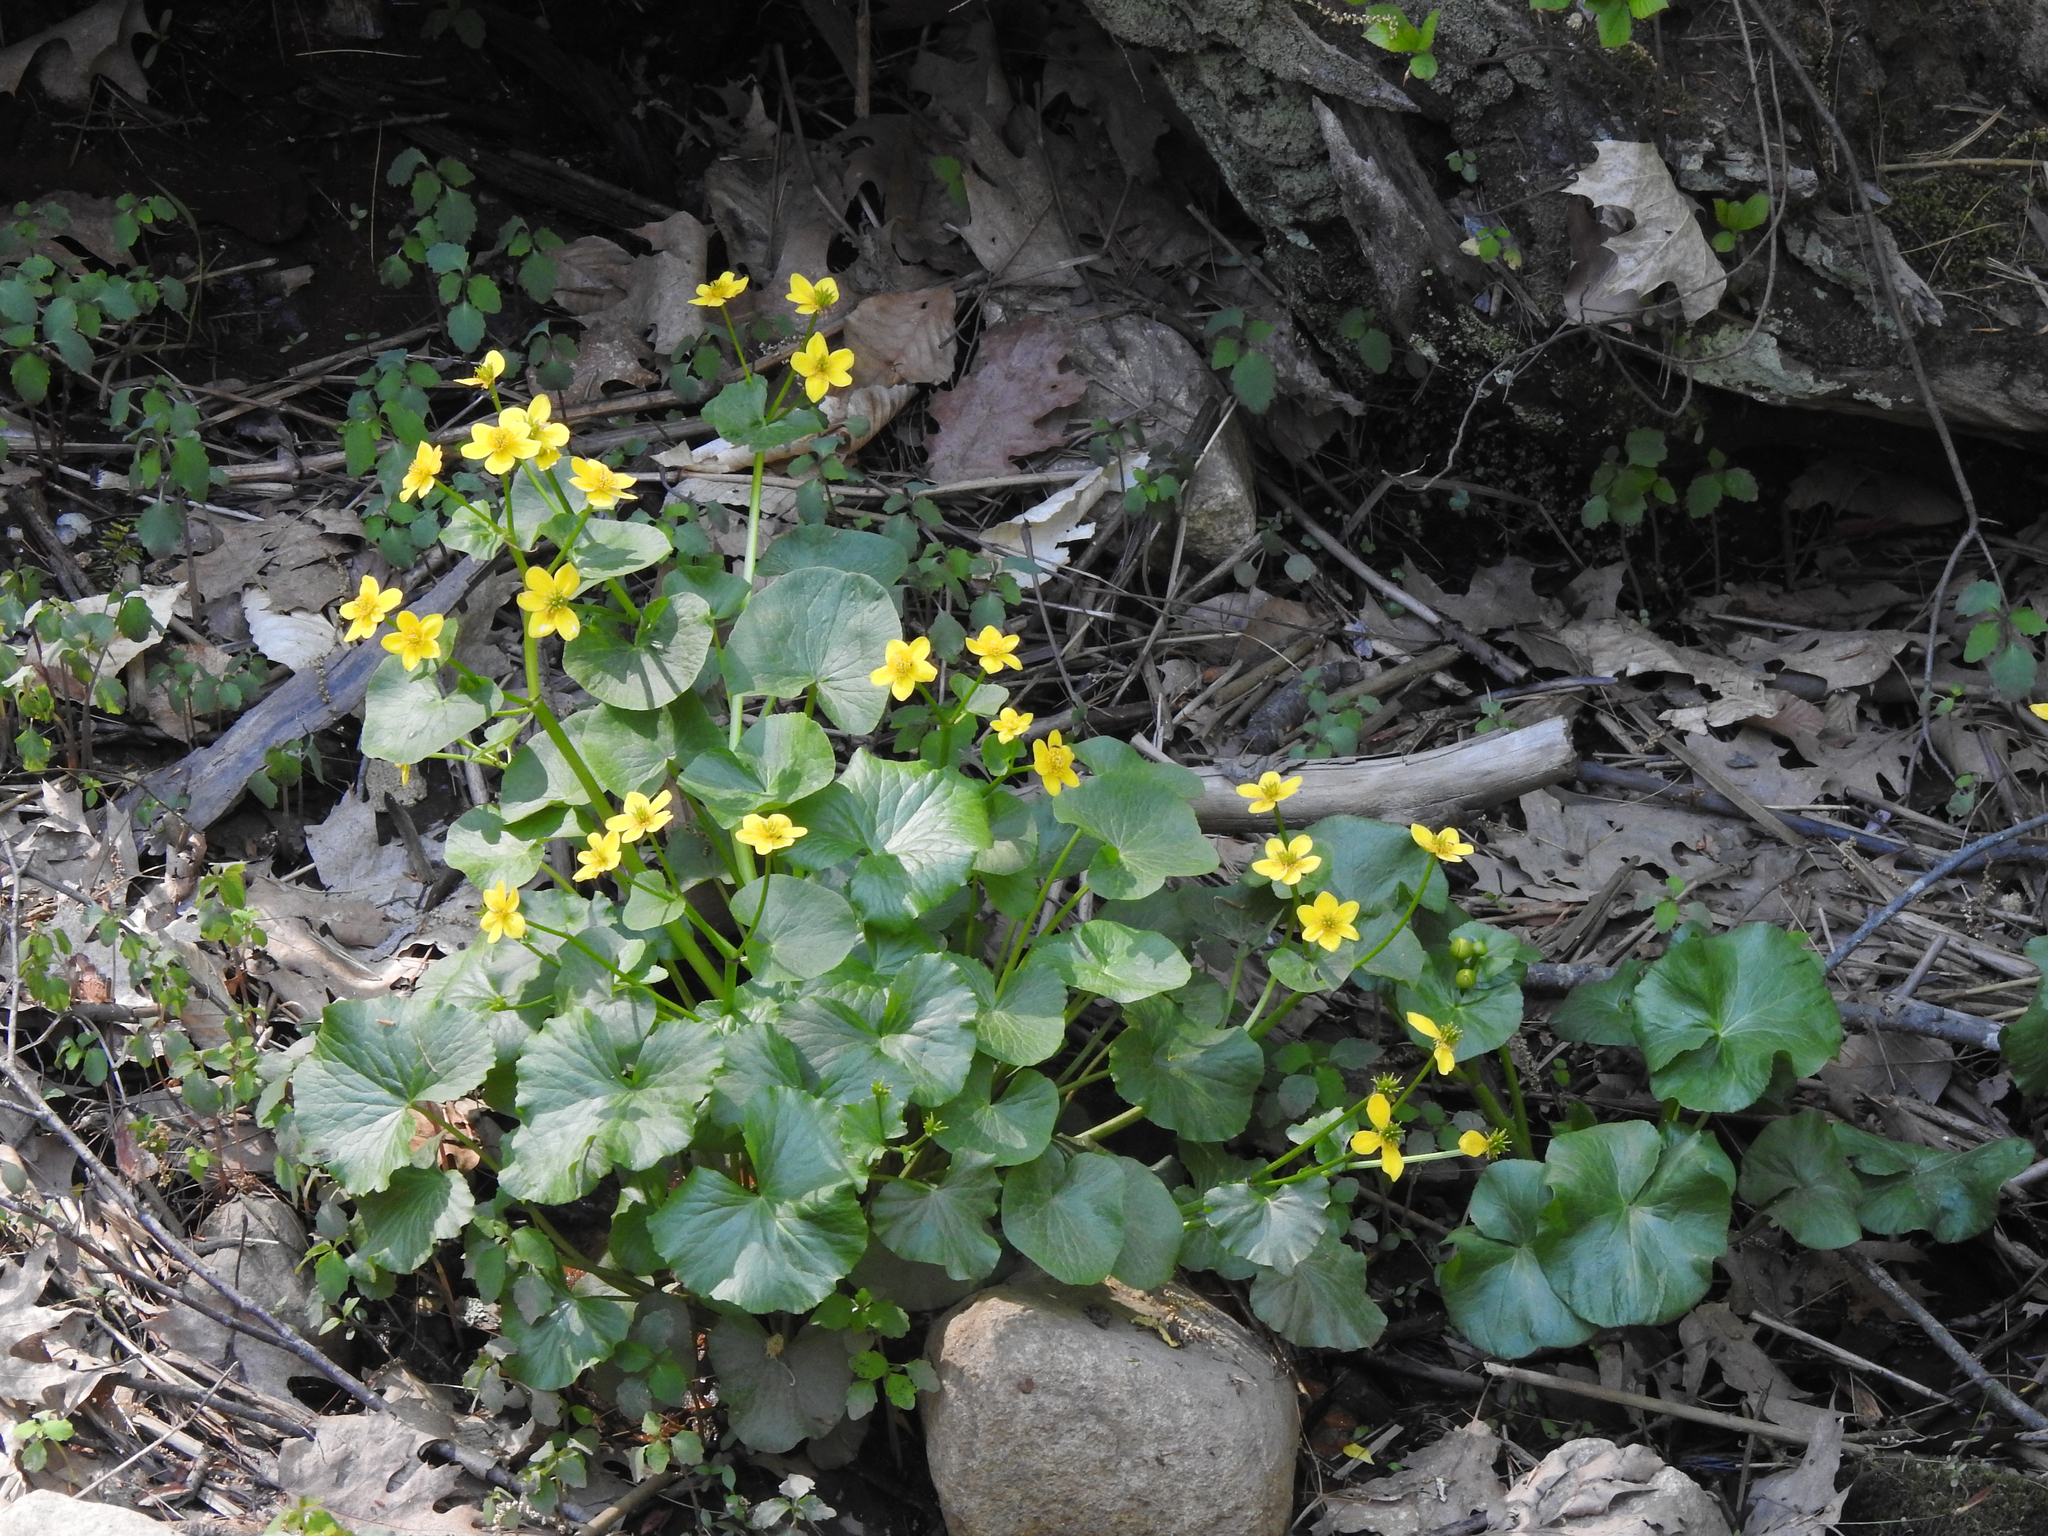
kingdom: Plantae
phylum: Tracheophyta
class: Magnoliopsida
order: Ranunculales
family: Ranunculaceae
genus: Caltha
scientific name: Caltha palustris
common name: Marsh marigold
